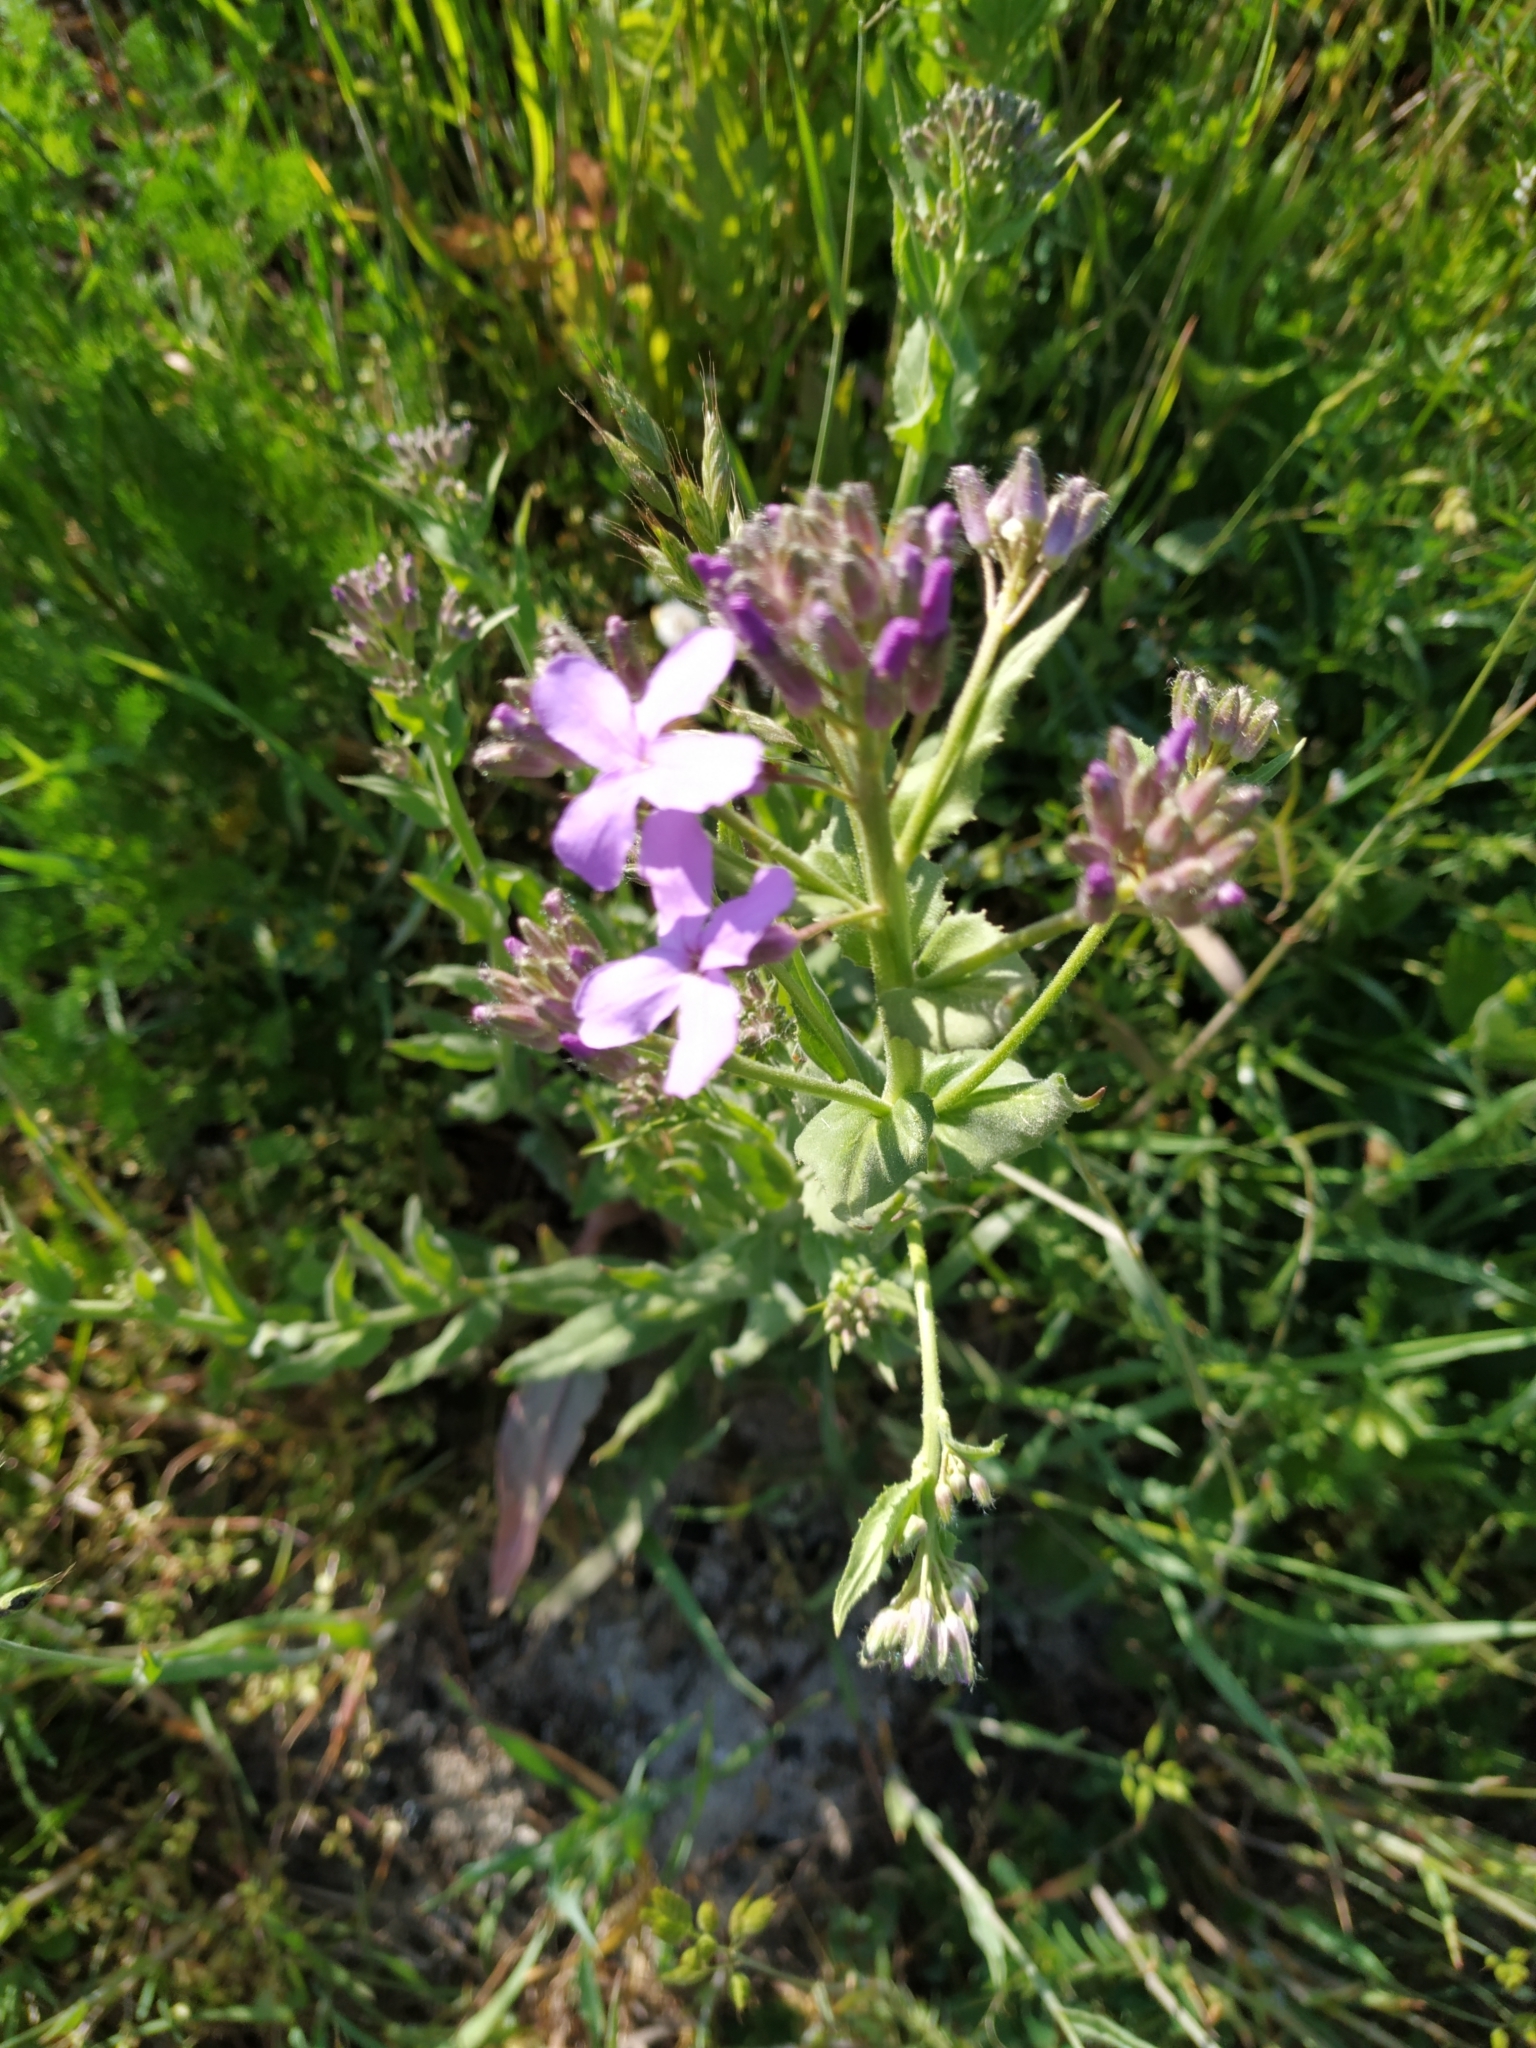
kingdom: Plantae
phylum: Tracheophyta
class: Magnoliopsida
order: Brassicales
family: Brassicaceae
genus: Hesperis
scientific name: Hesperis matronalis
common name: Dame's-violet
